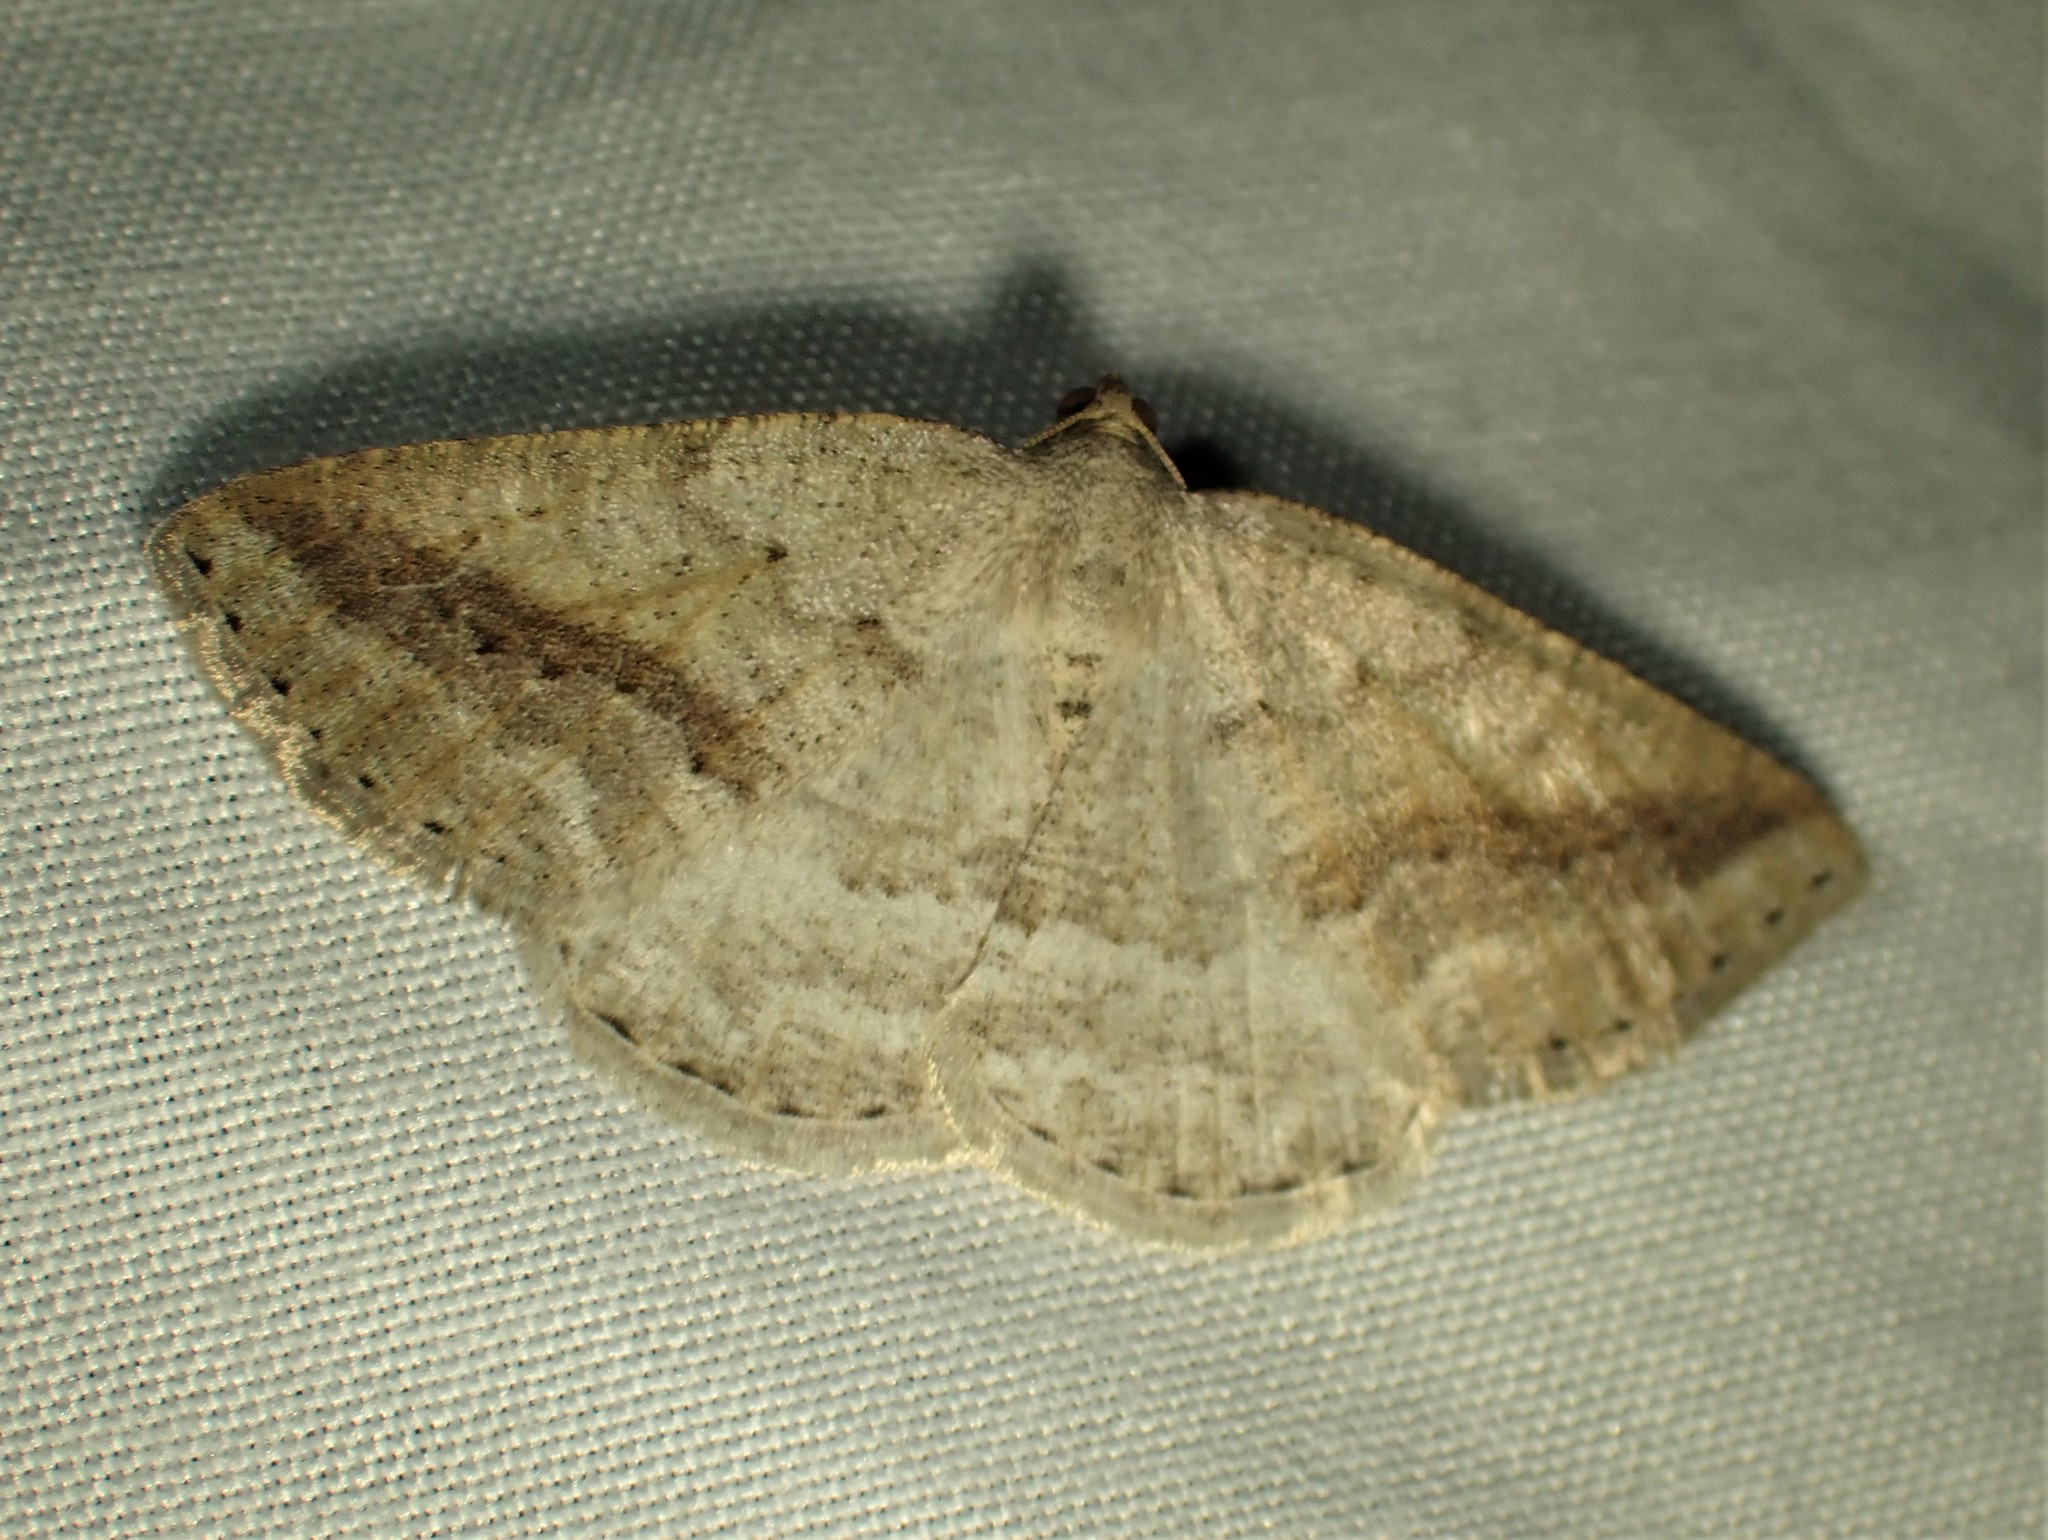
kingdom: Animalia
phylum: Arthropoda
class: Insecta
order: Lepidoptera
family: Geometridae
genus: Tacparia
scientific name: Tacparia detersata
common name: Pale alder moth
